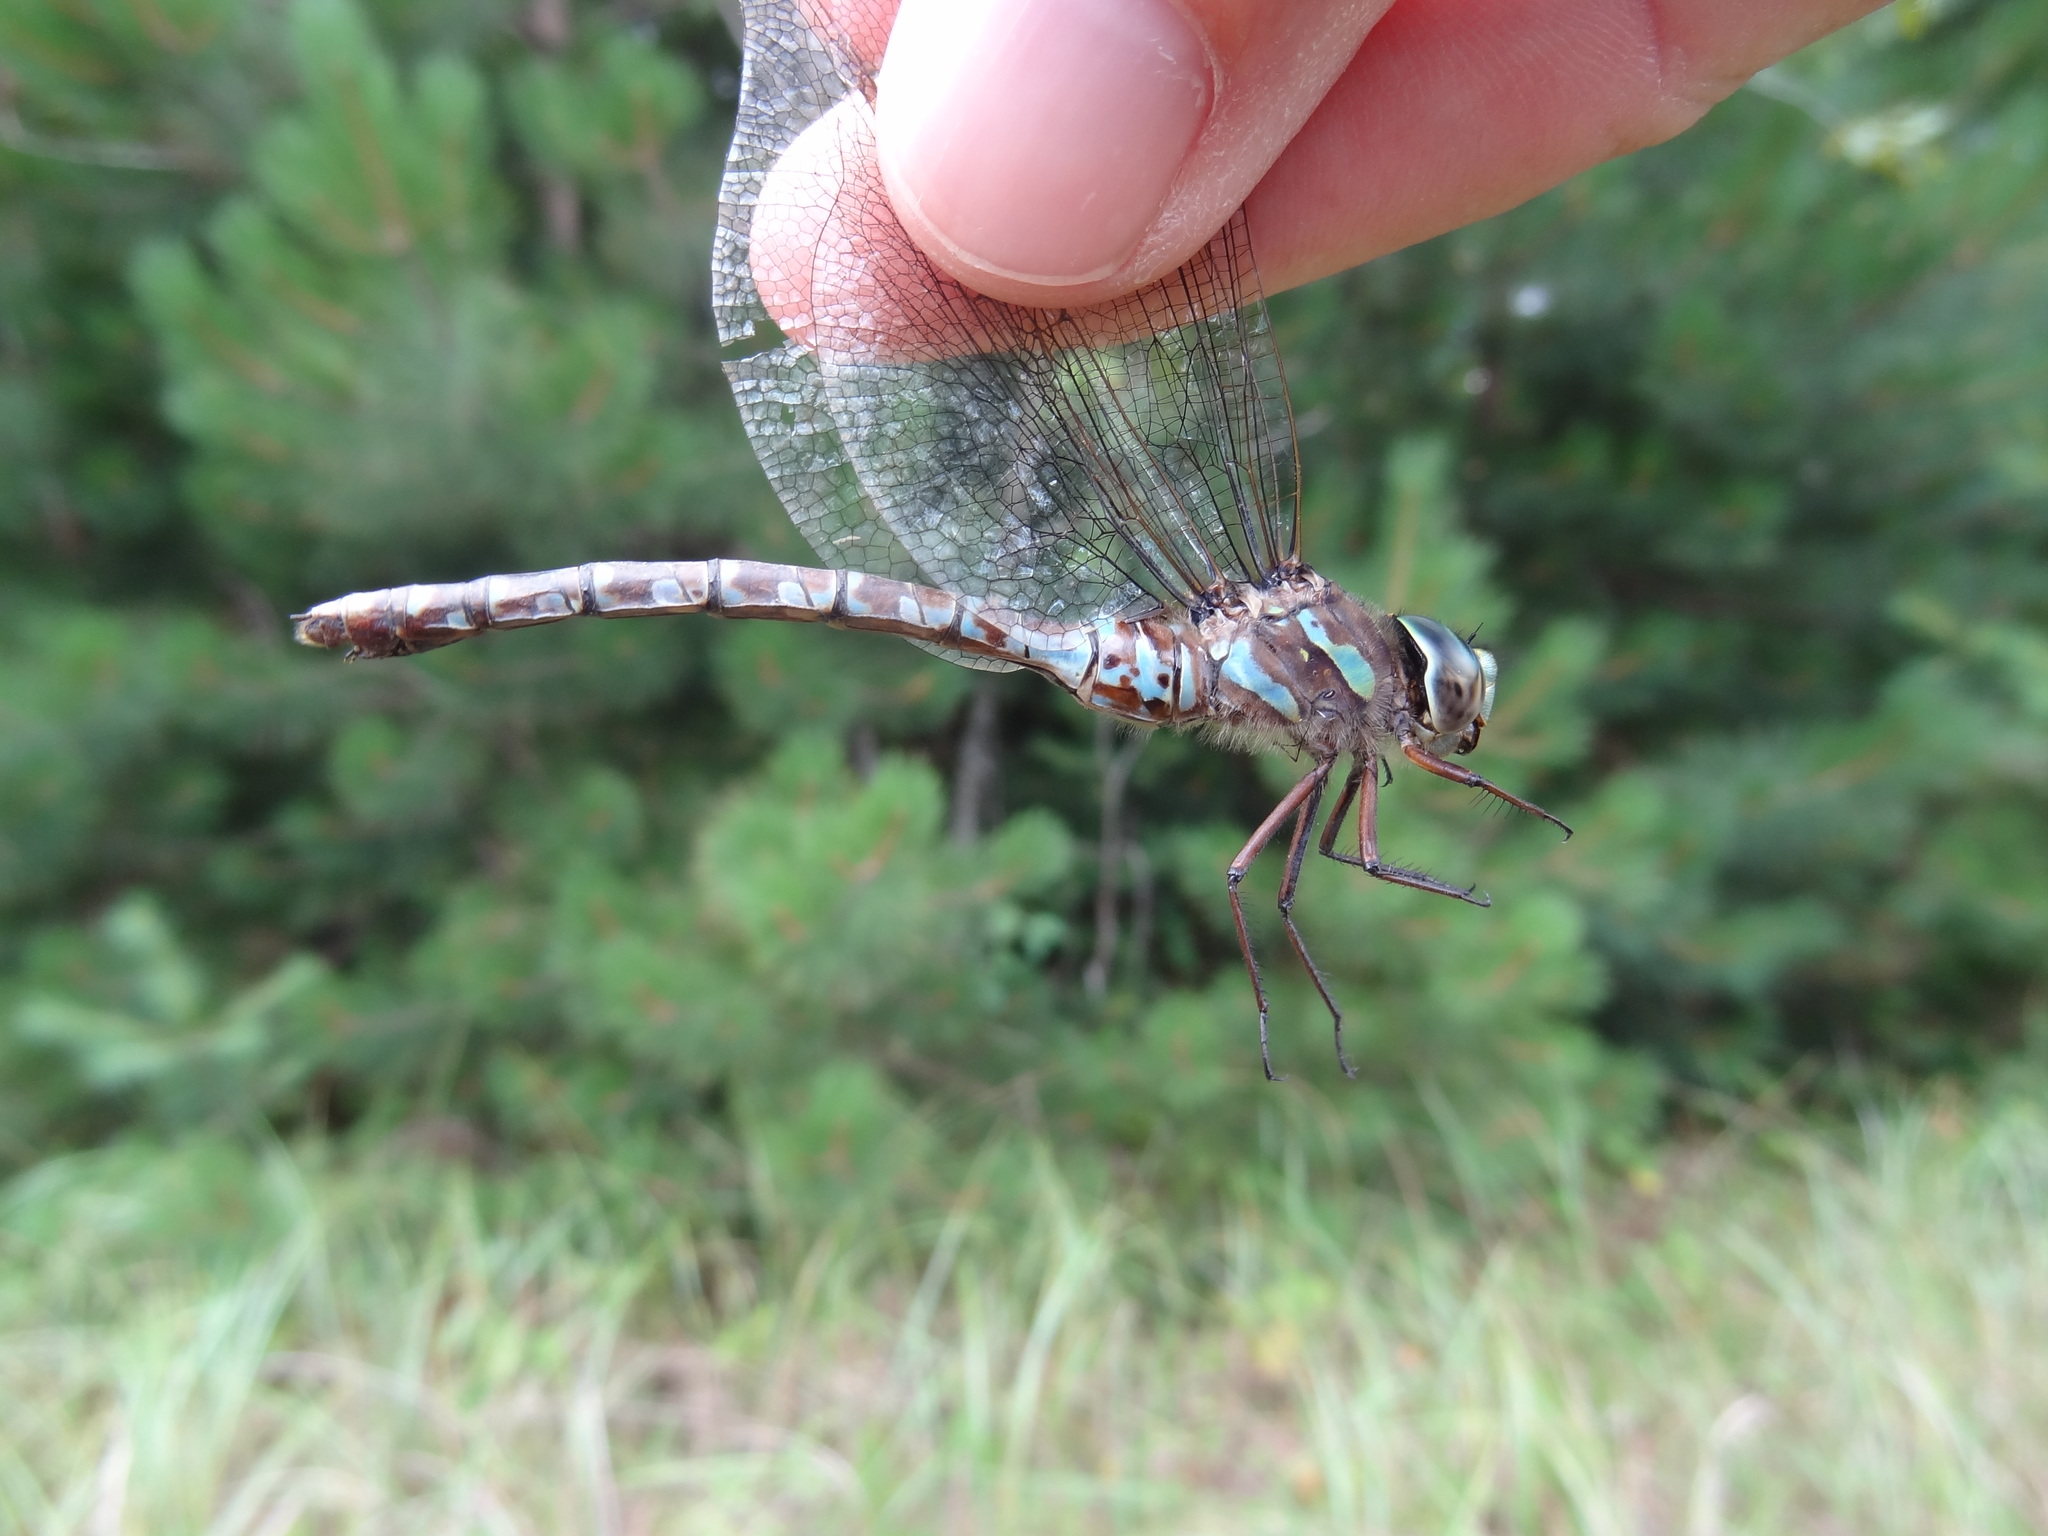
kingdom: Animalia
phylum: Arthropoda
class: Insecta
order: Odonata
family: Aeshnidae
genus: Aeshna
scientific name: Aeshna canadensis
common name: Canada darner
